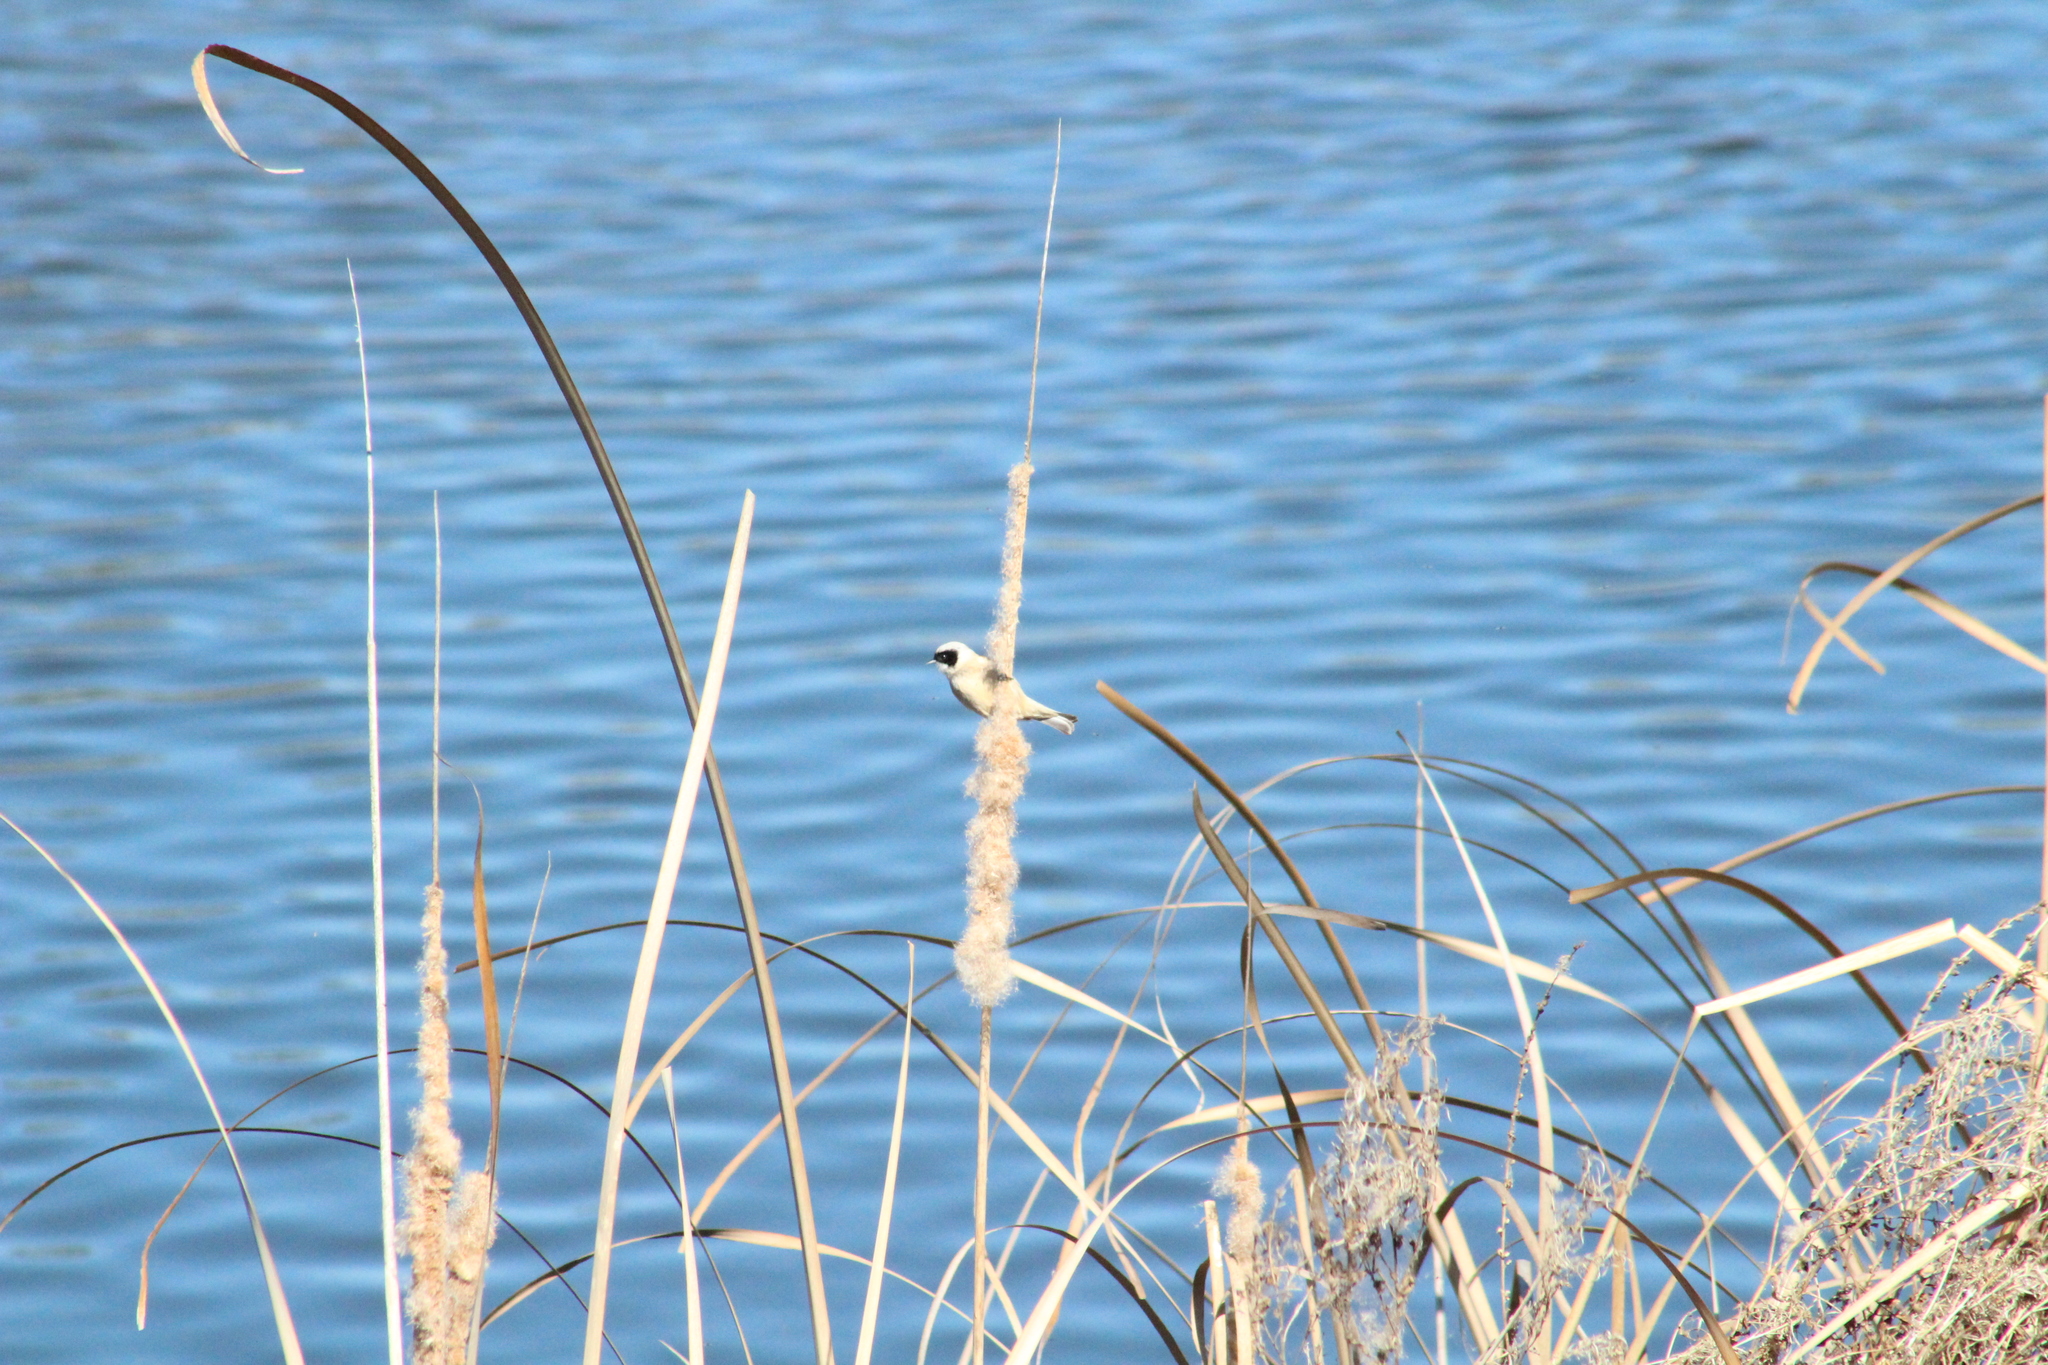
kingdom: Animalia
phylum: Chordata
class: Aves
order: Passeriformes
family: Remizidae
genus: Remiz
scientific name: Remiz pendulinus
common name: Eurasian penduline tit
